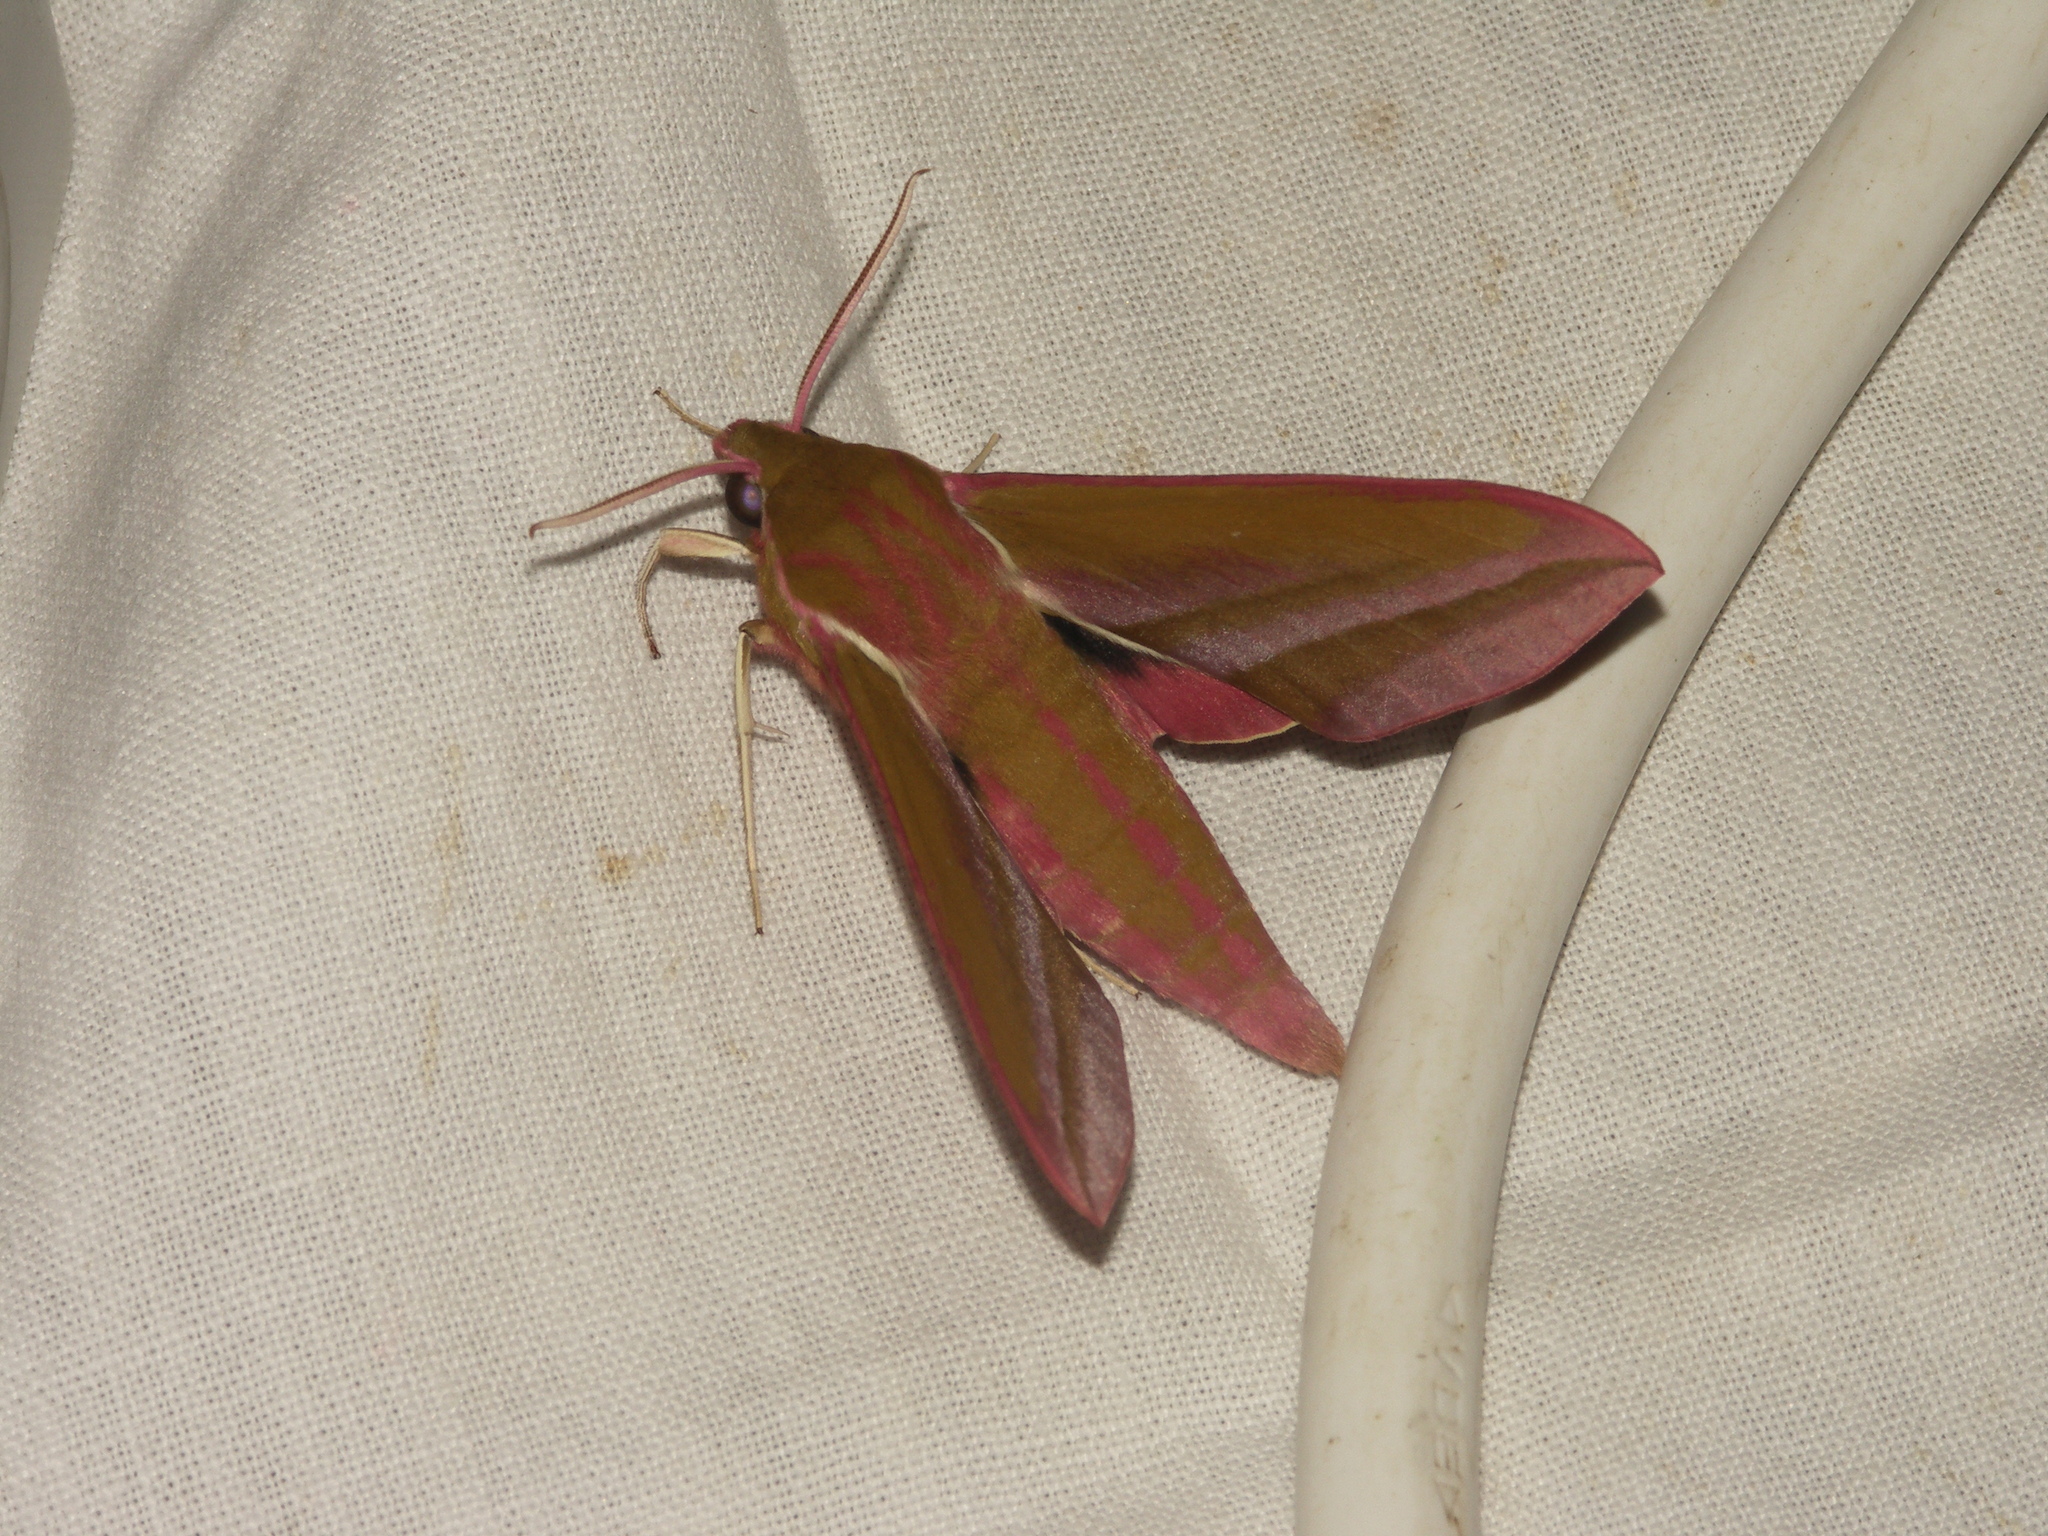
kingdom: Animalia
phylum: Arthropoda
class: Insecta
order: Lepidoptera
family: Sphingidae
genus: Deilephila
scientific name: Deilephila elpenor
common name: Elephant hawk-moth
